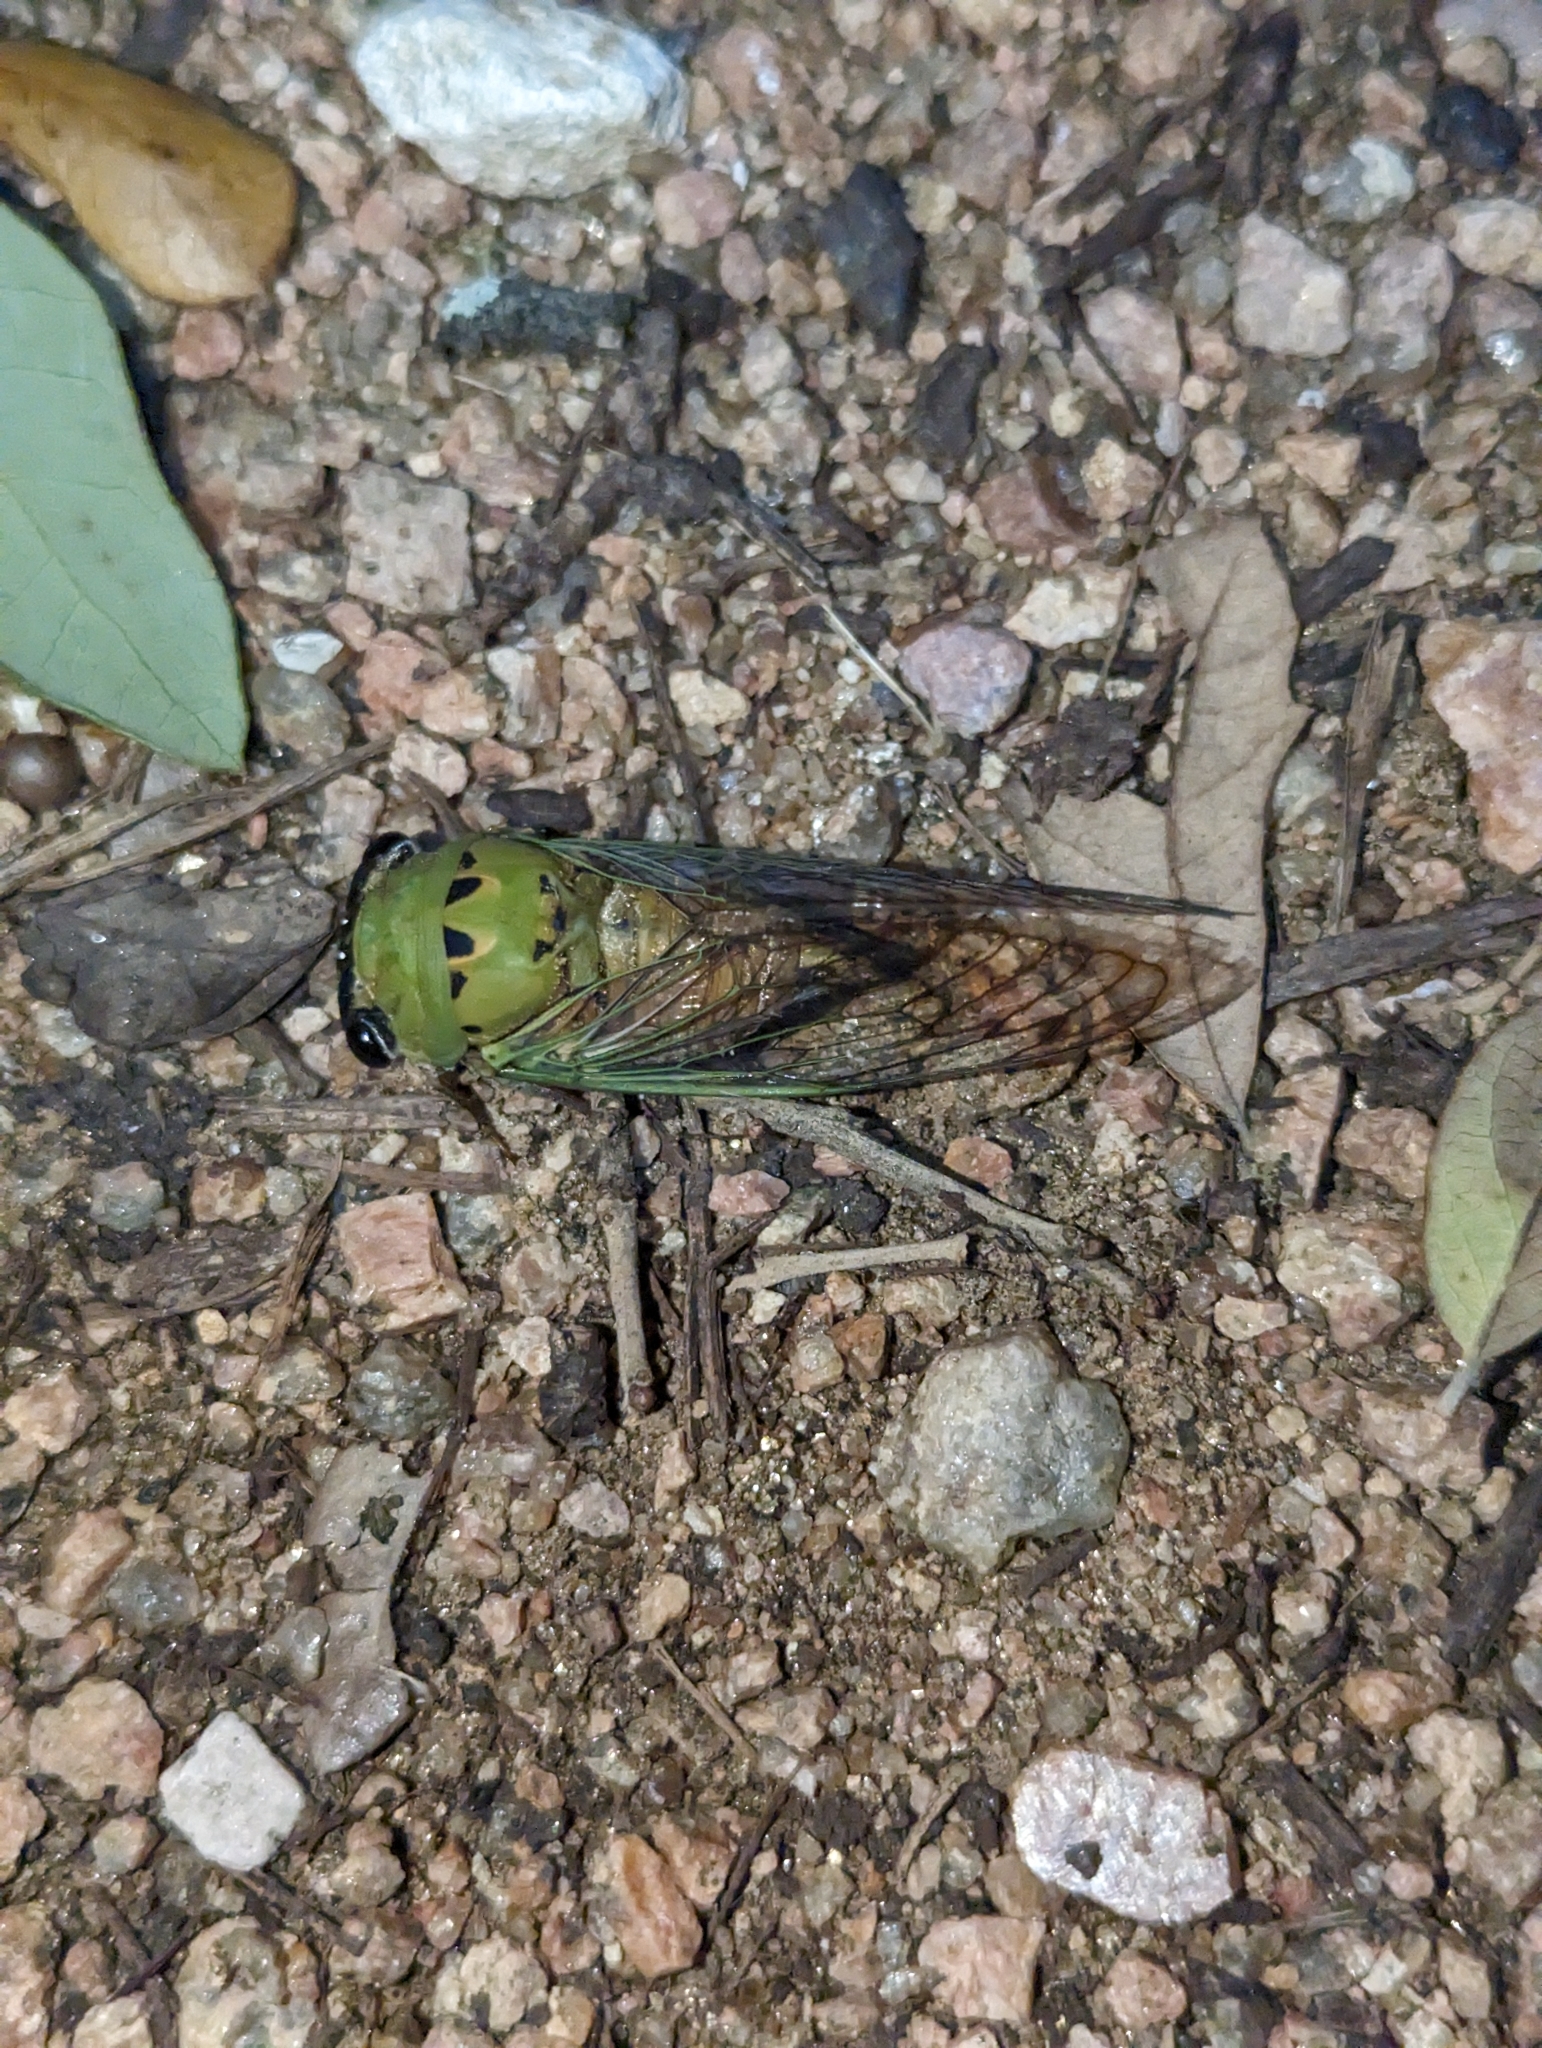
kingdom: Animalia
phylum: Arthropoda
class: Insecta
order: Hemiptera
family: Cicadidae
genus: Neotibicen
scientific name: Neotibicen superbus
